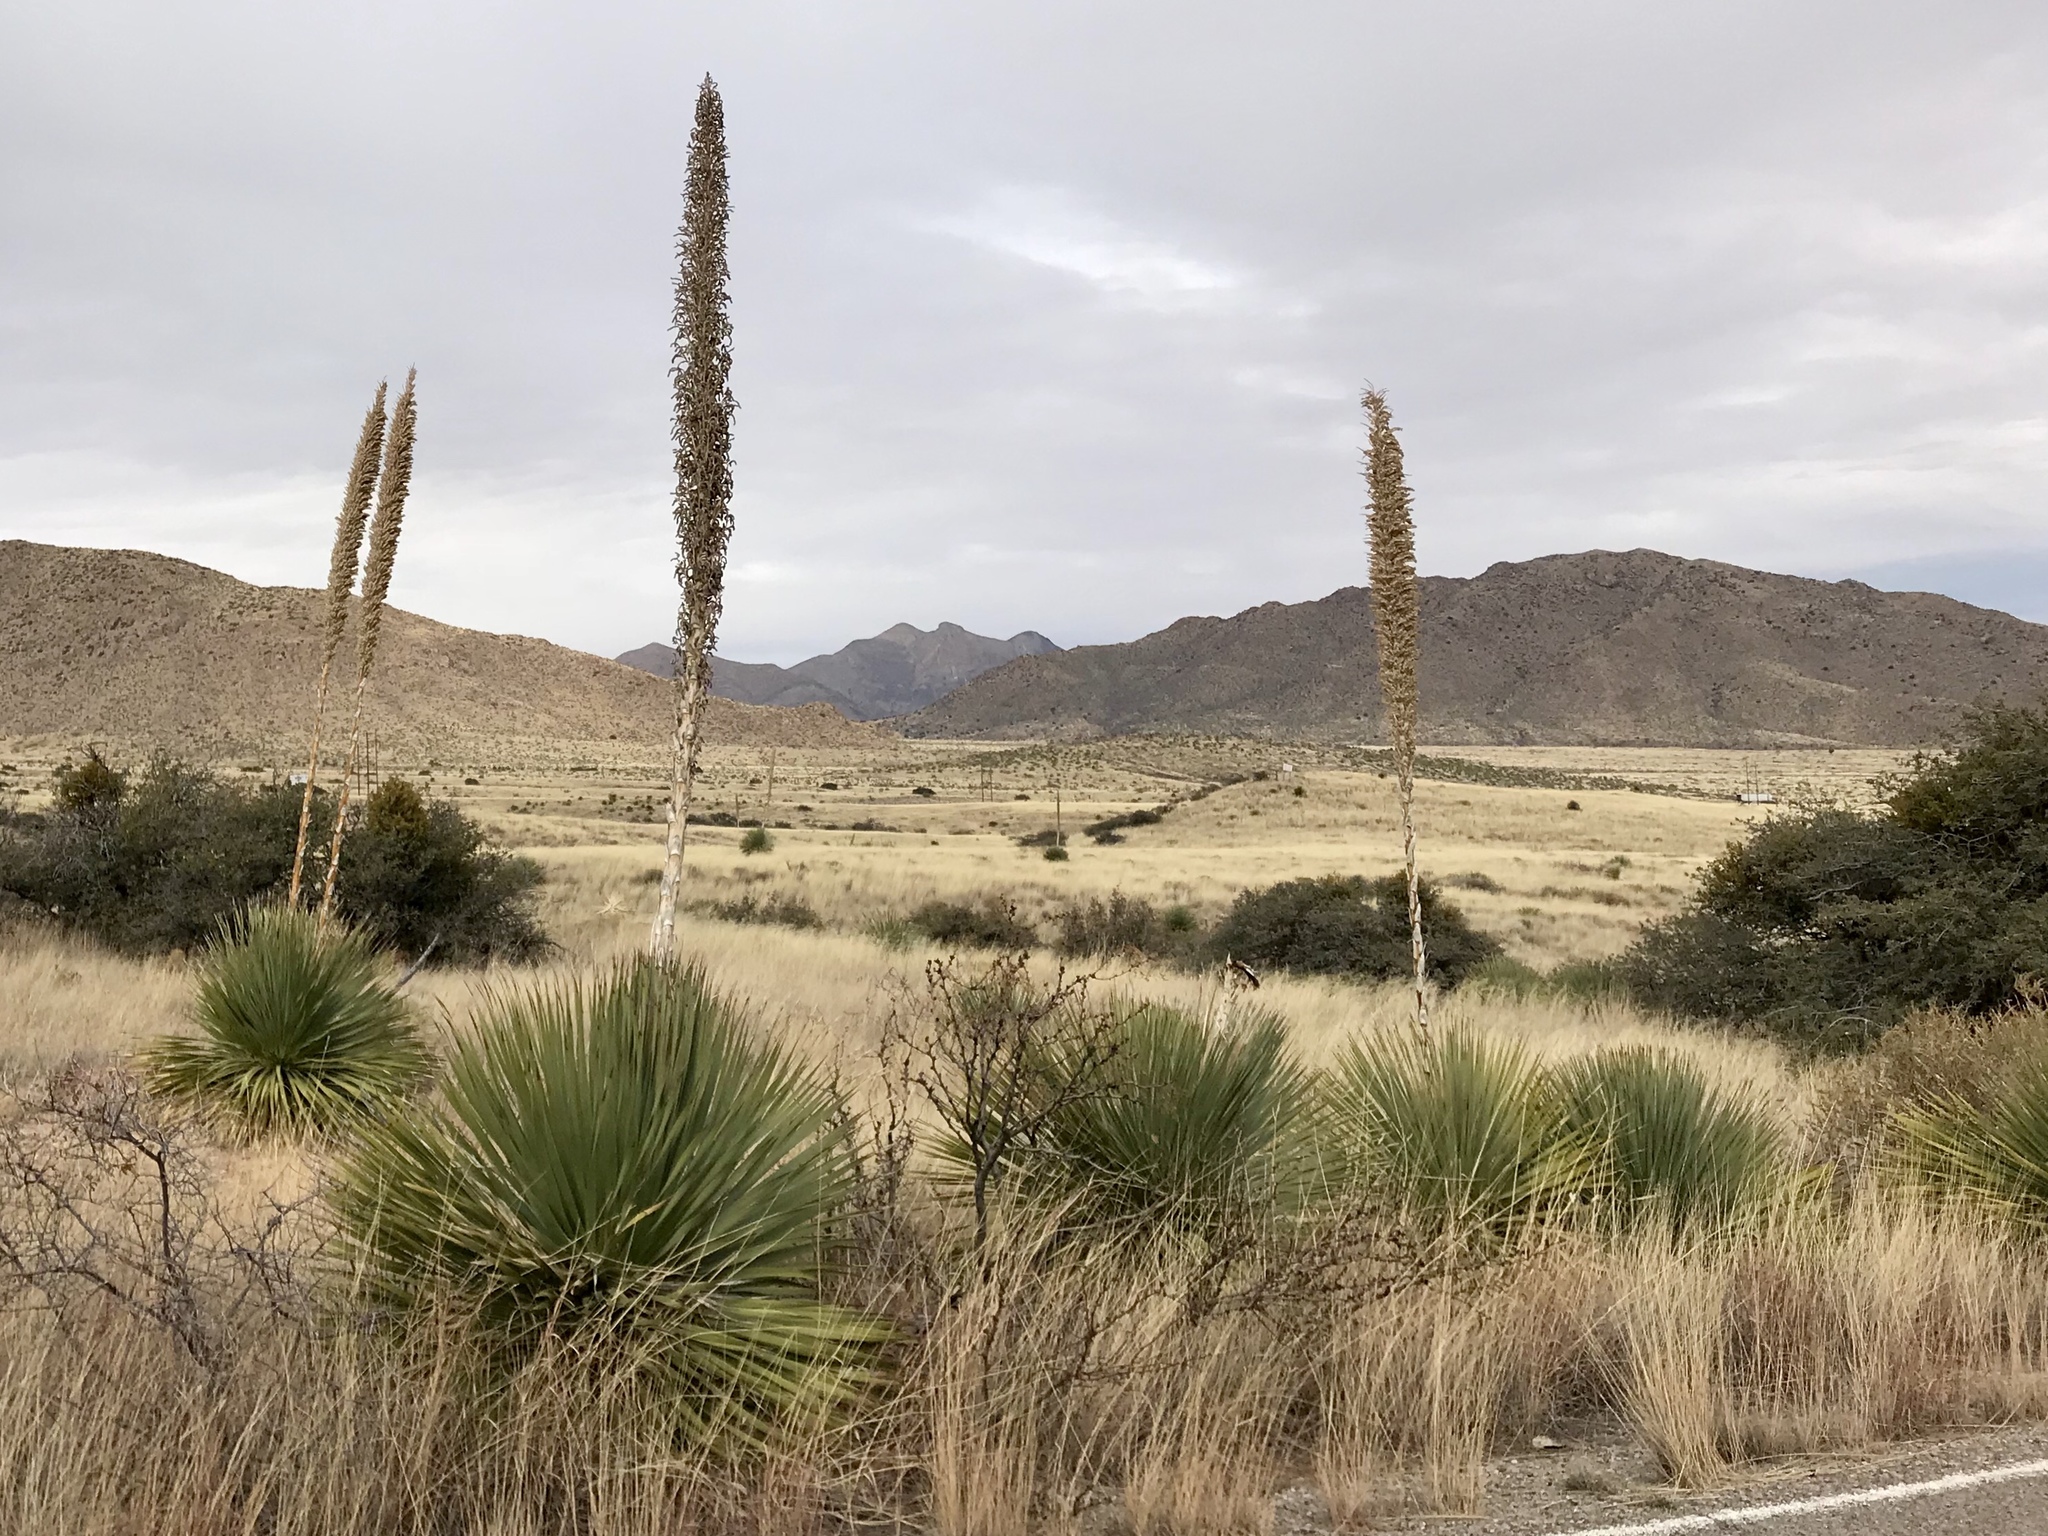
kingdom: Plantae
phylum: Tracheophyta
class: Liliopsida
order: Asparagales
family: Asparagaceae
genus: Dasylirion
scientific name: Dasylirion wheeleri
